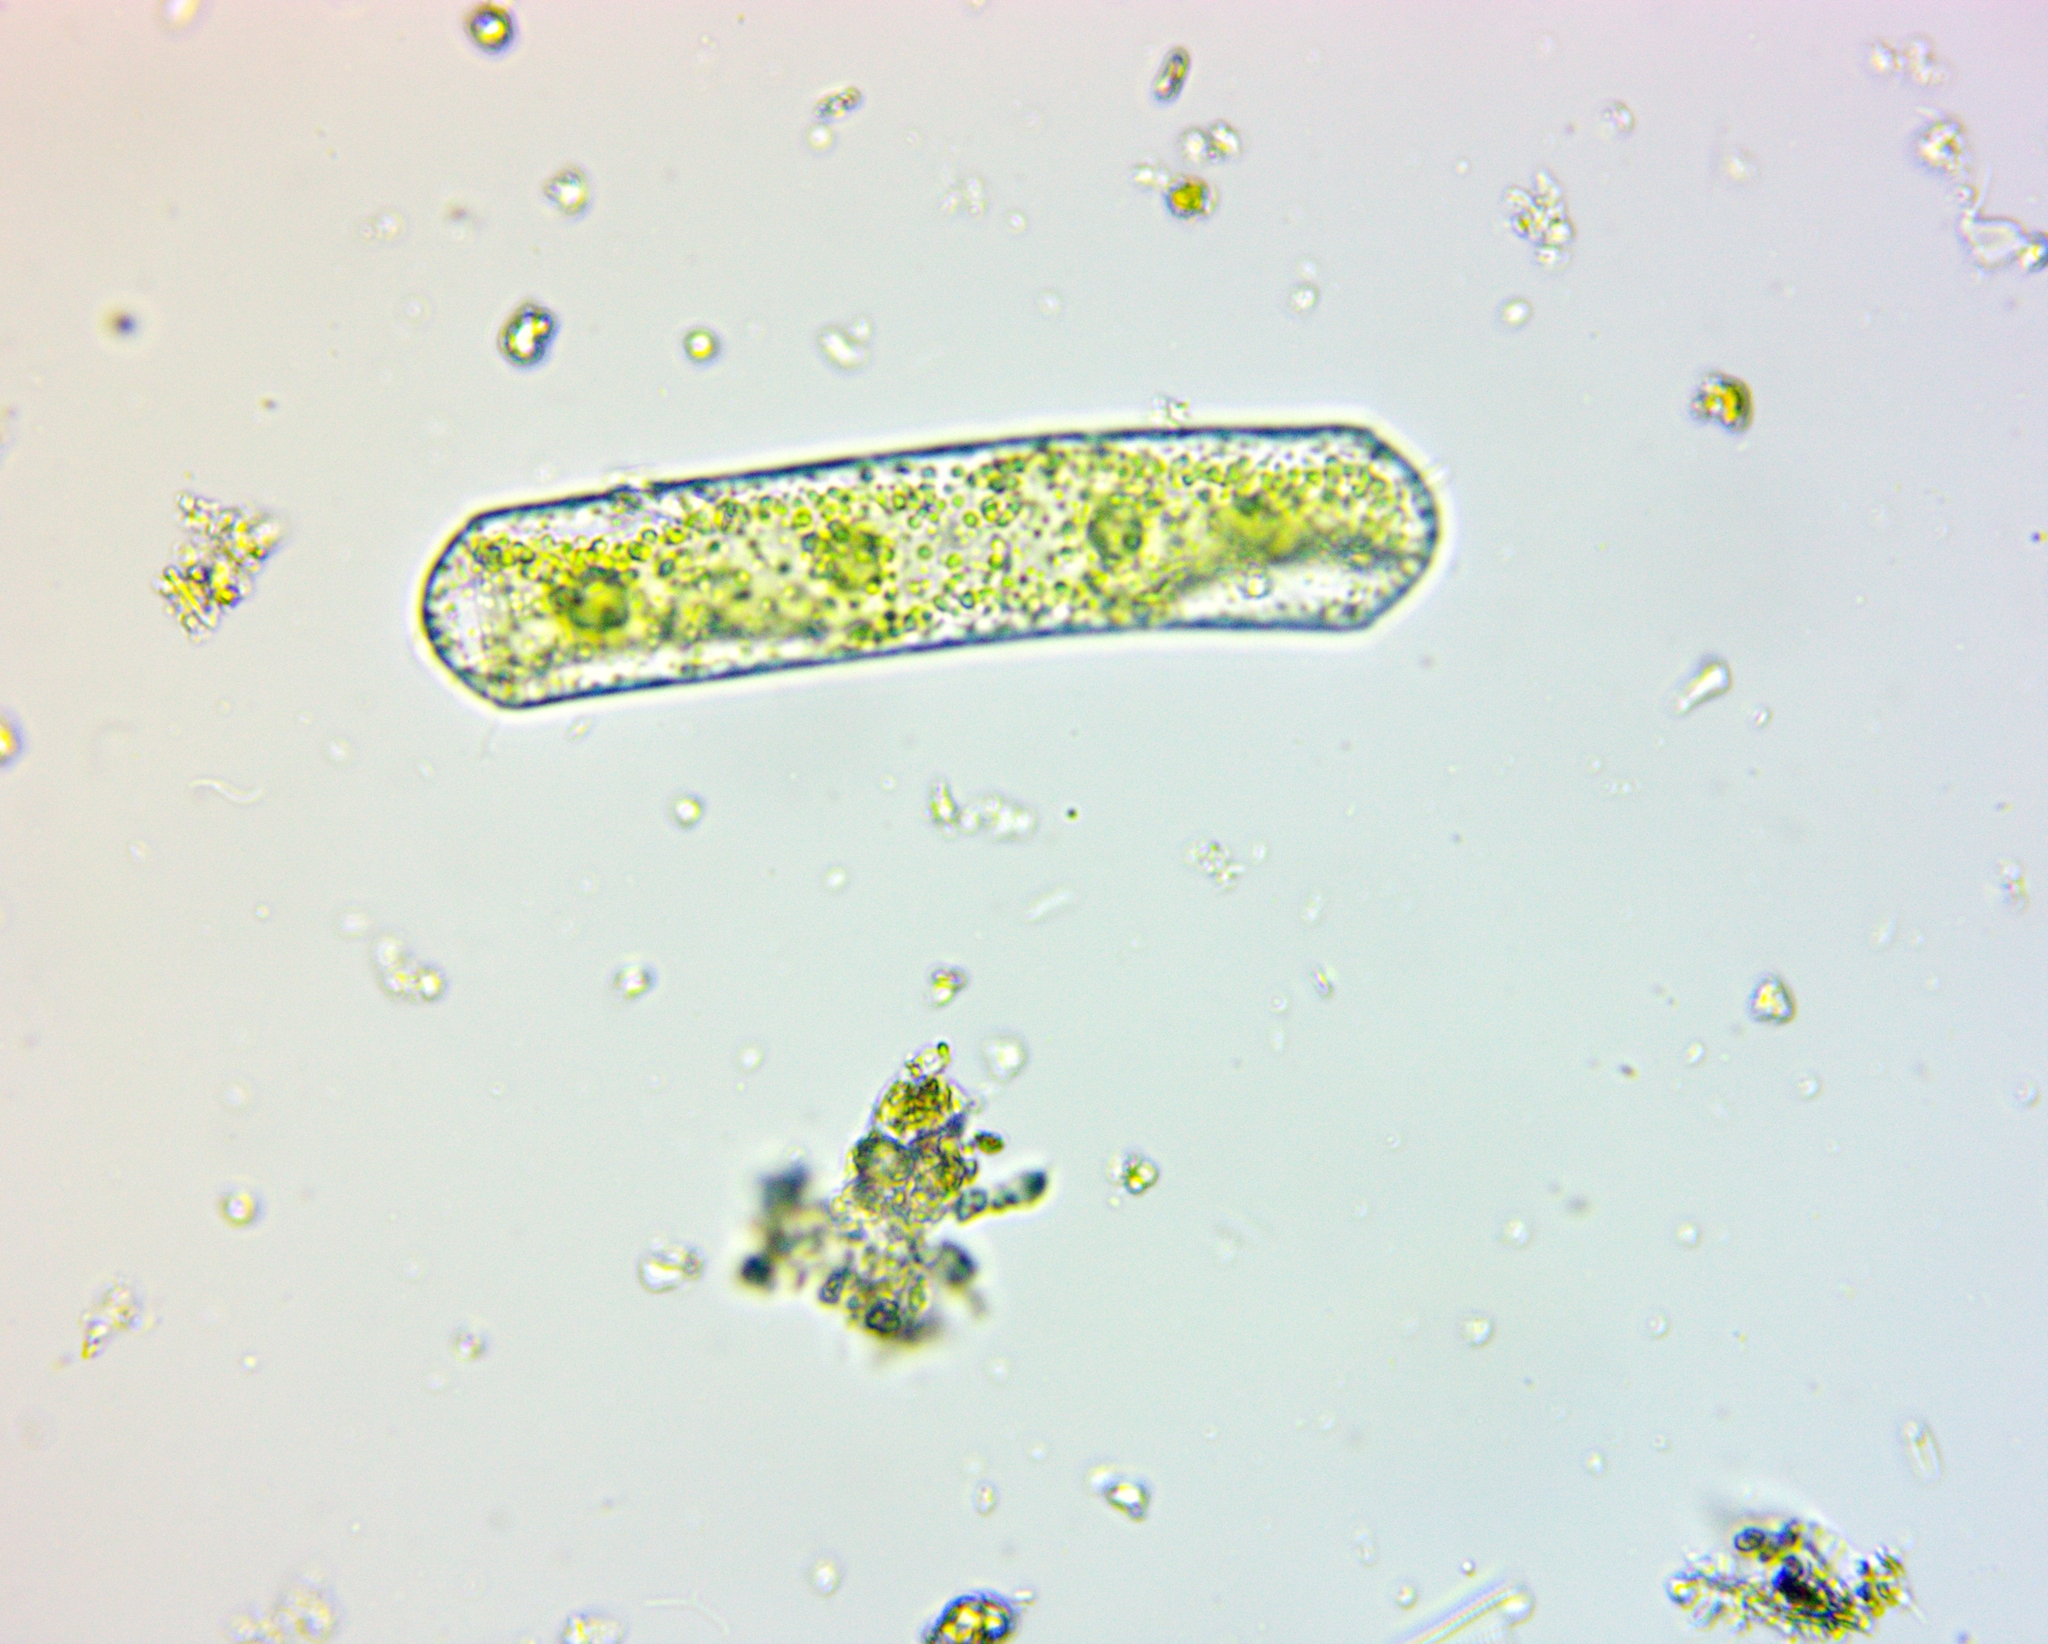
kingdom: Plantae
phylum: Charophyta
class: Zygnematophyceae
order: Zygnematales
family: Zygnemataceae
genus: Mougeotia
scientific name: Mougeotia
